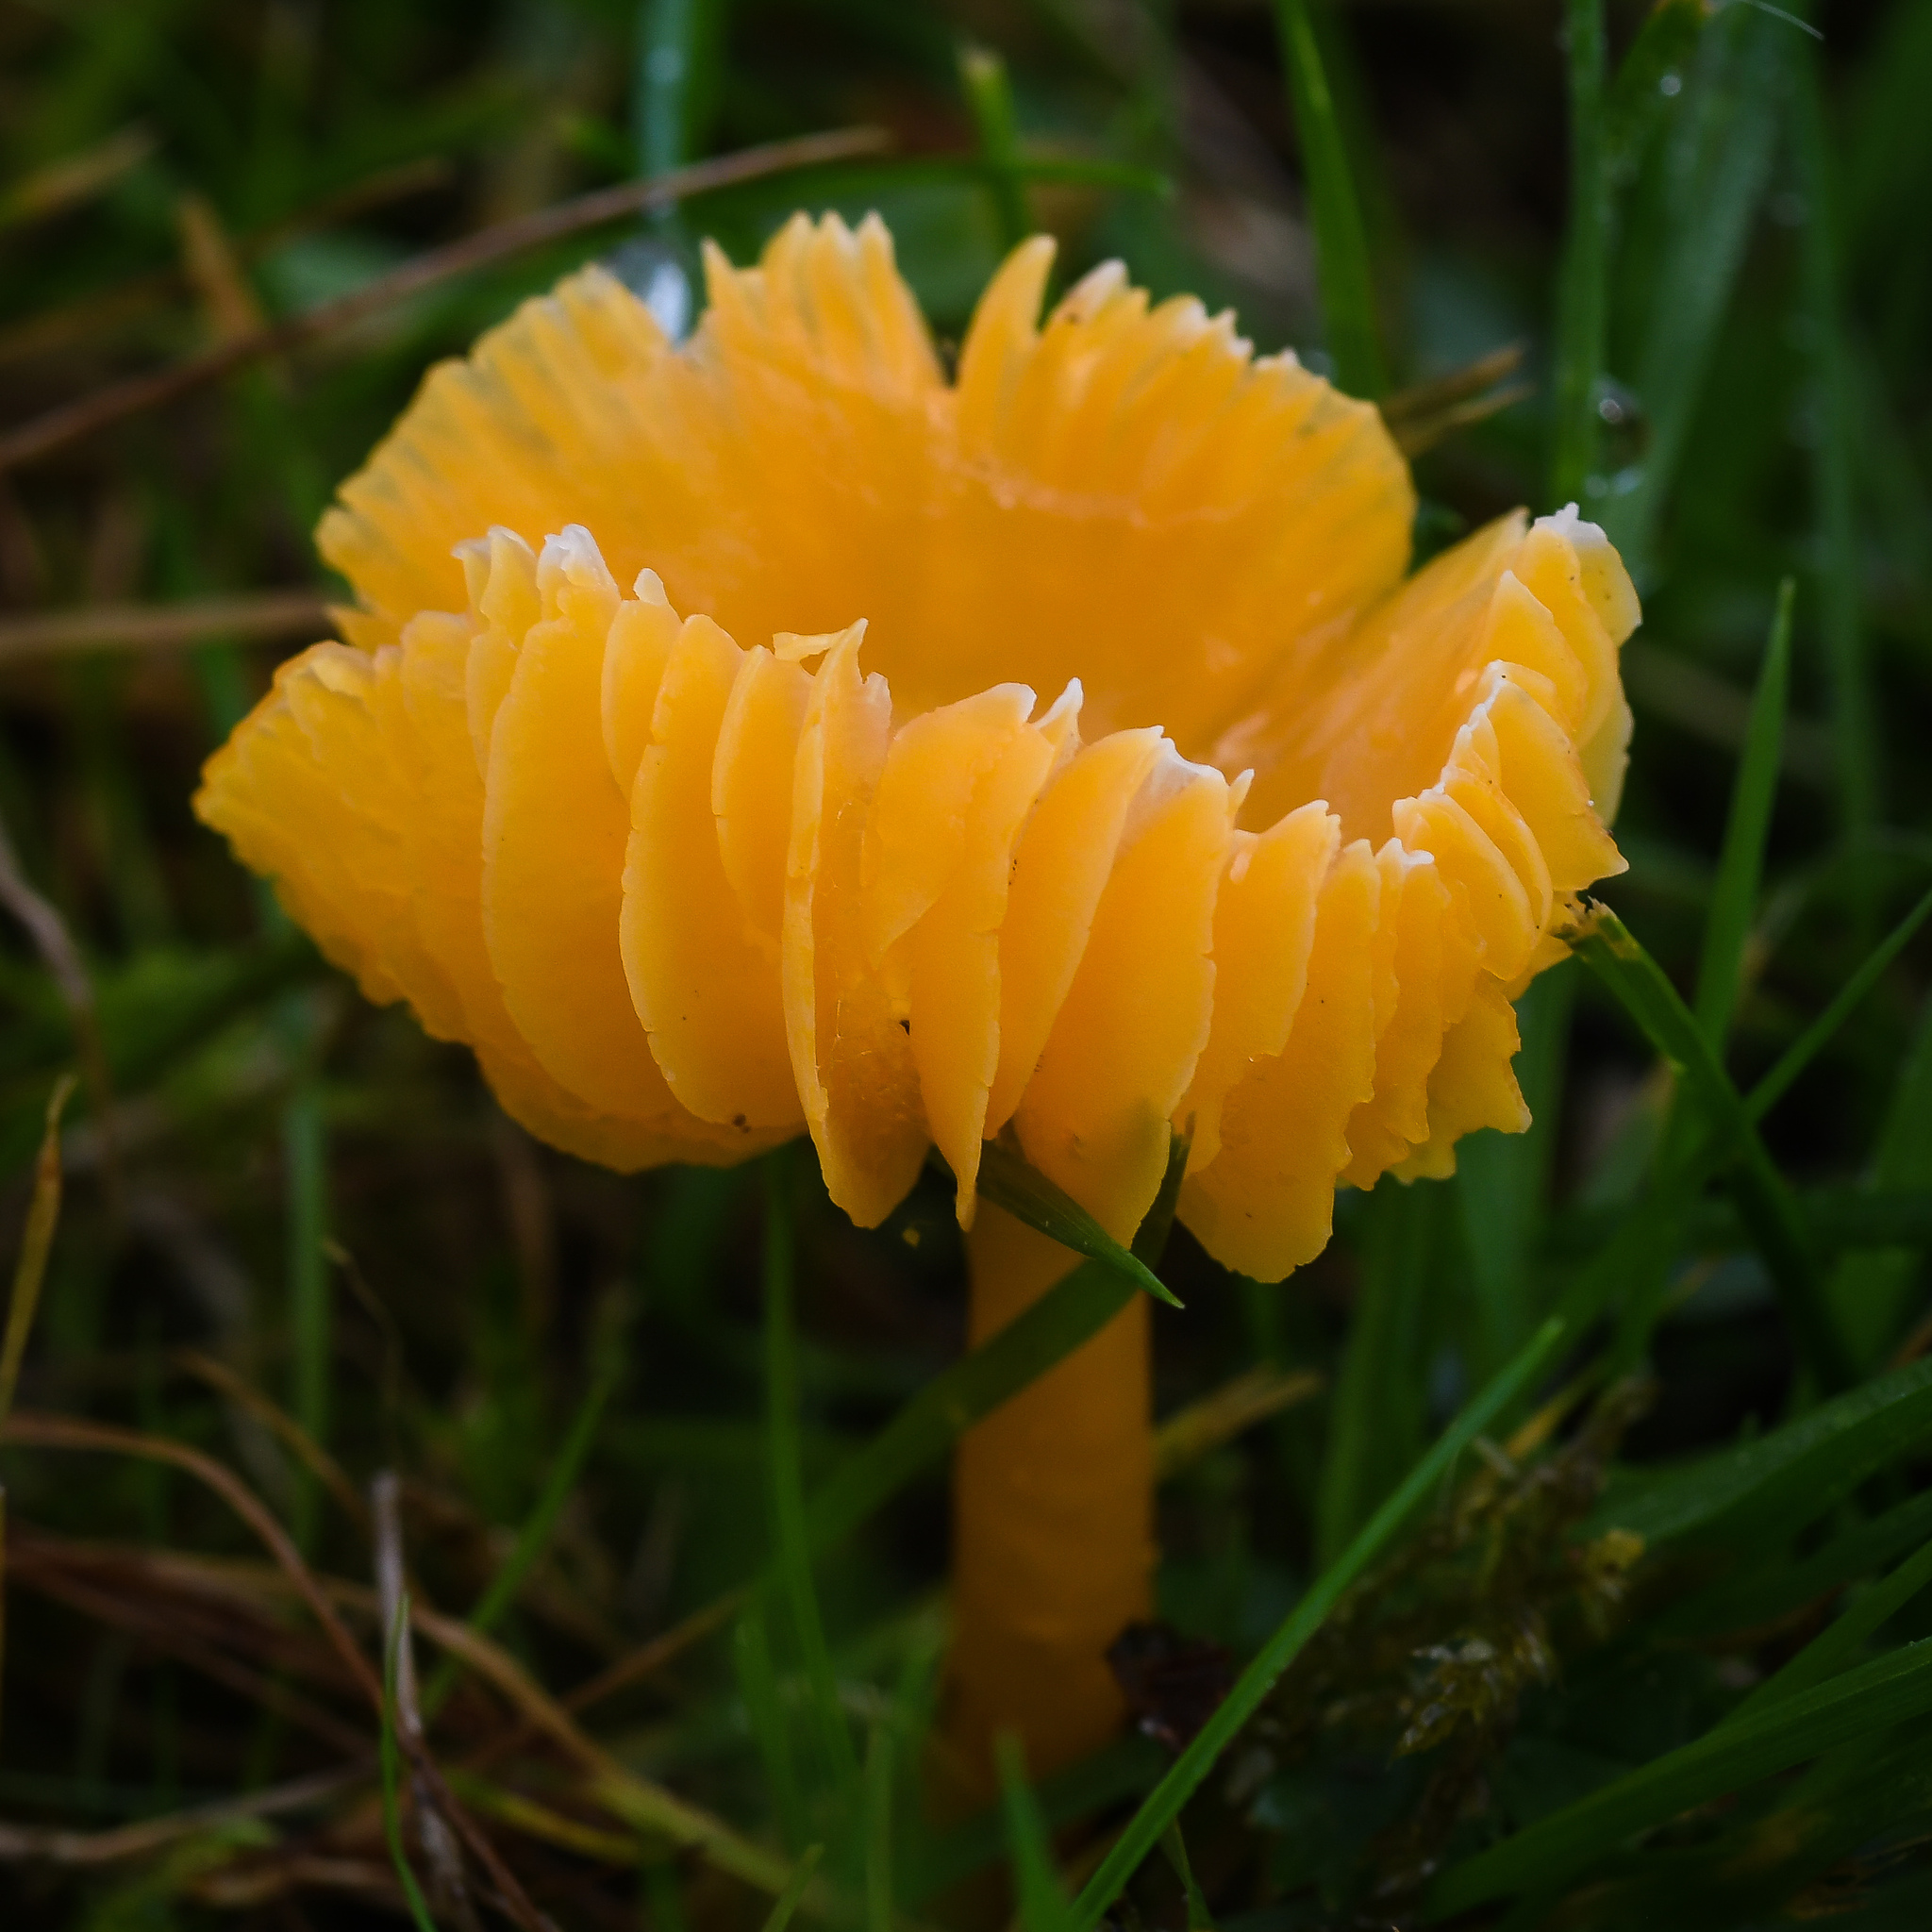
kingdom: Fungi
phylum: Basidiomycota
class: Agaricomycetes
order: Agaricales
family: Hygrophoraceae
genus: Gliophorus
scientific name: Gliophorus psittacinus
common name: Parrot wax-cap
